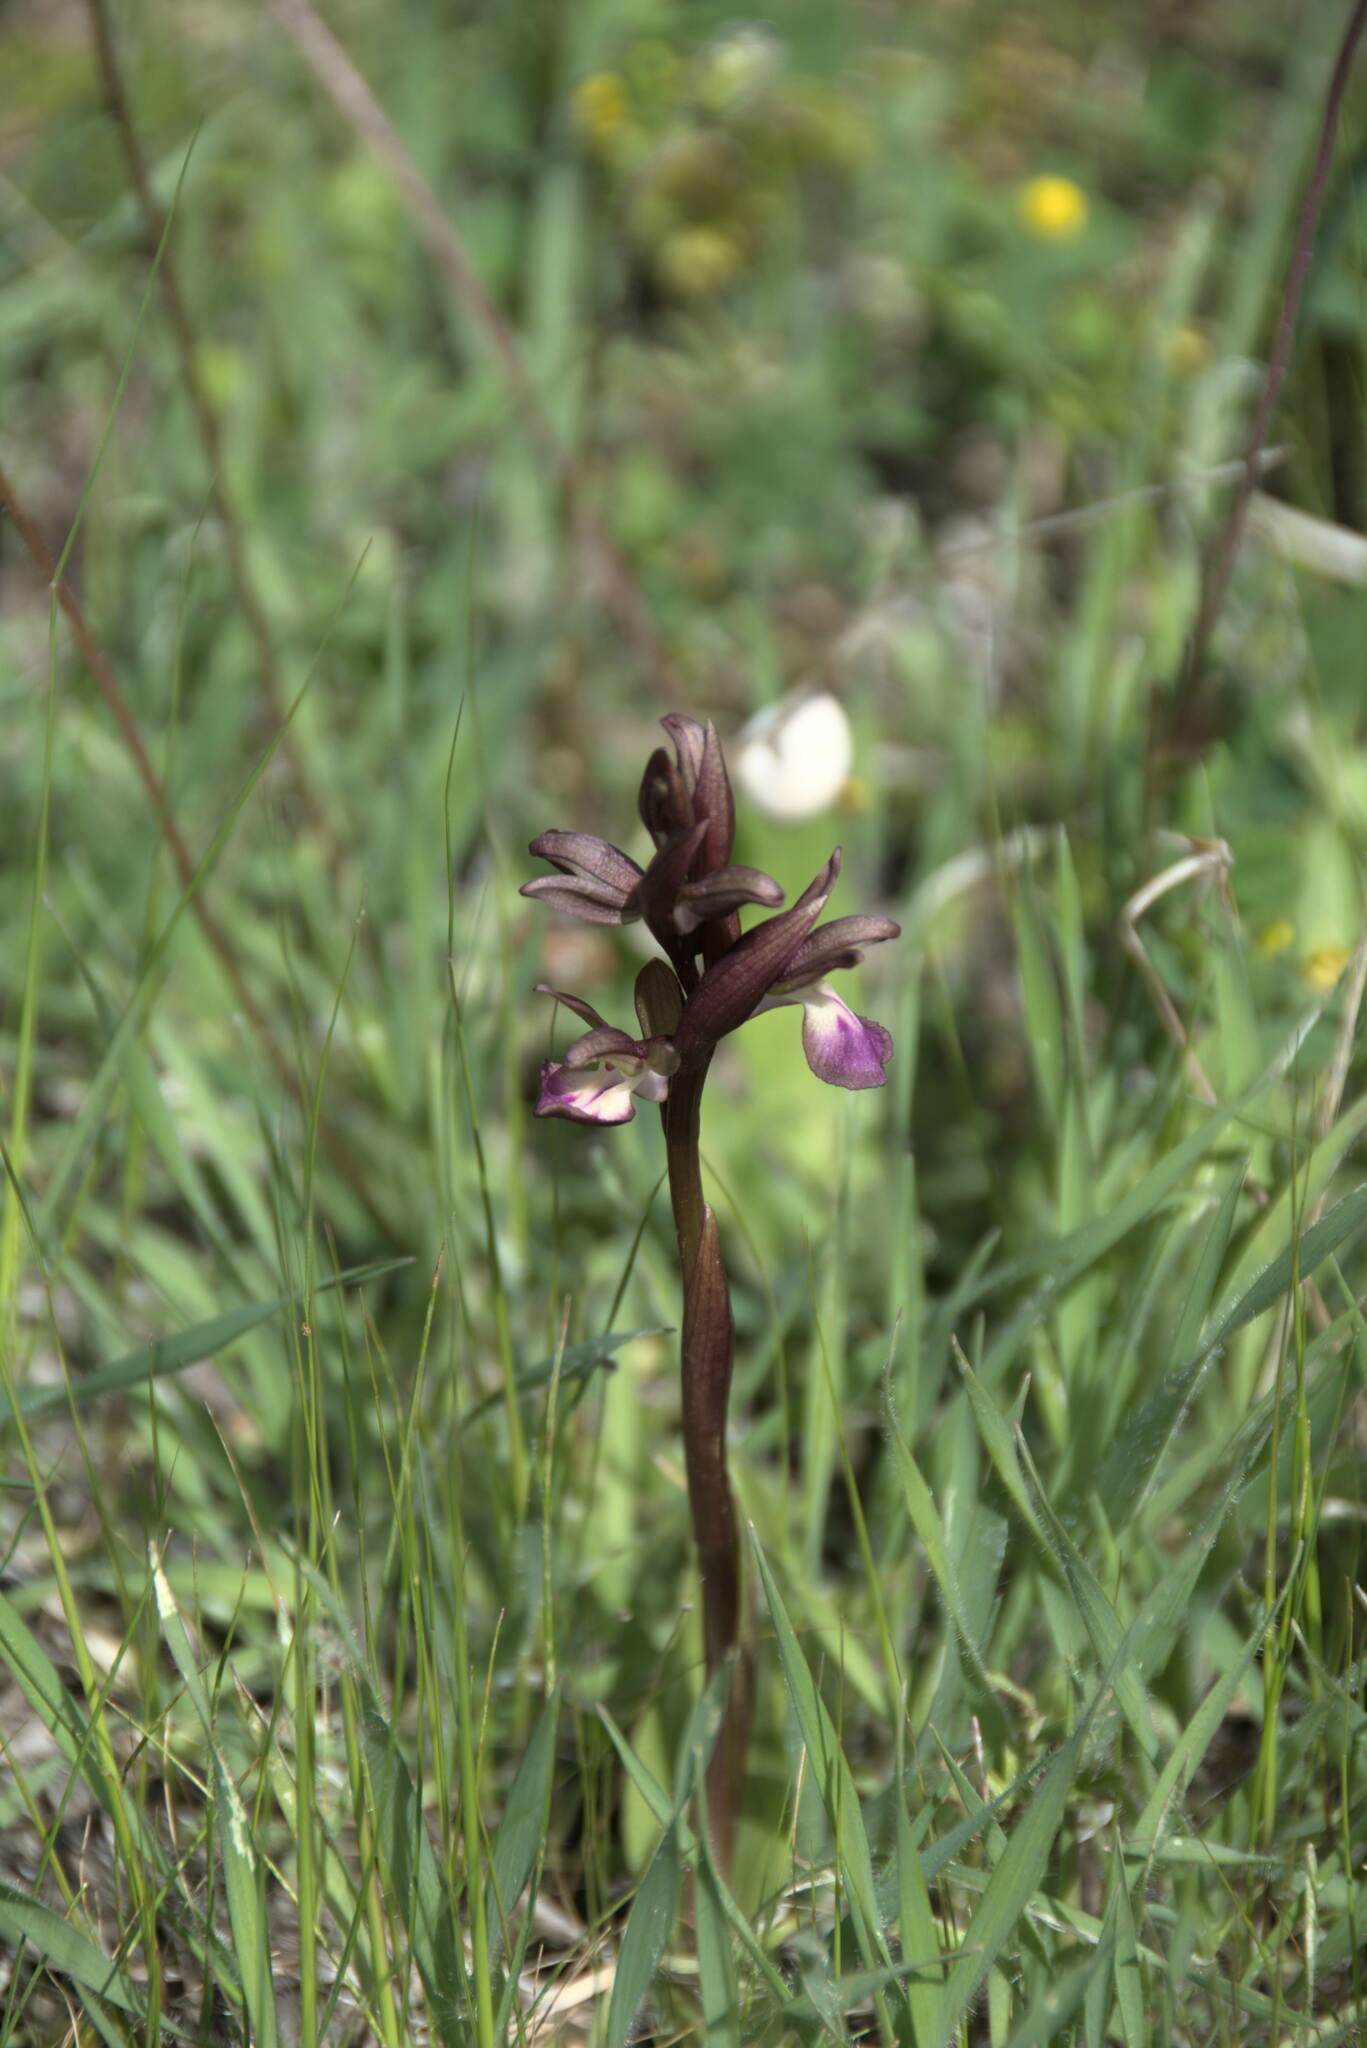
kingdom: Plantae
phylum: Tracheophyta
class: Liliopsida
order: Asparagales
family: Orchidaceae
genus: Anacamptis
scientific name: Anacamptis collina
